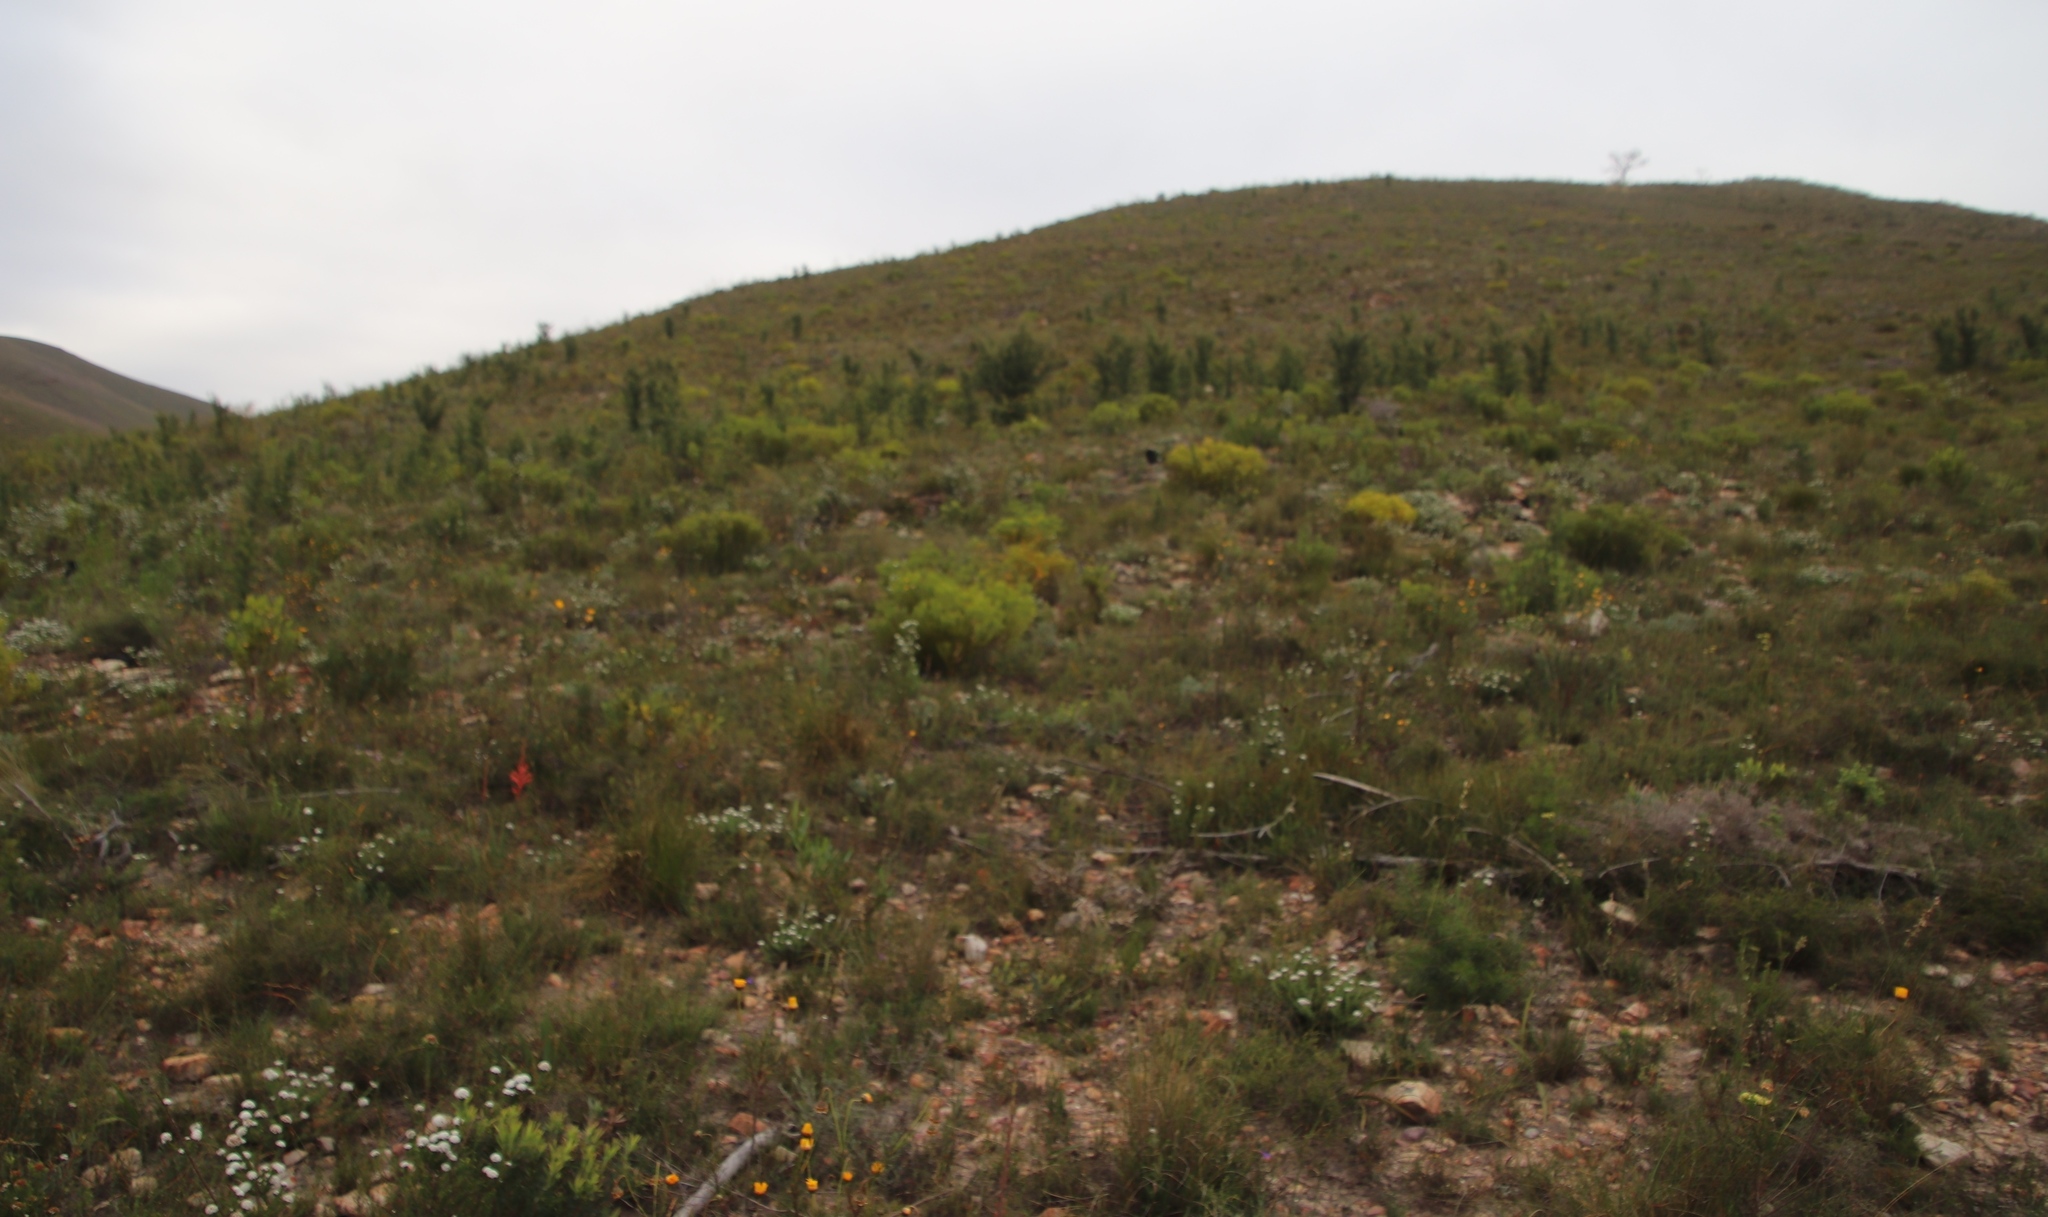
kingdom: Plantae
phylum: Tracheophyta
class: Magnoliopsida
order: Proteales
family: Proteaceae
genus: Leucadendron
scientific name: Leucadendron salignum
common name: Common sunshine conebush
